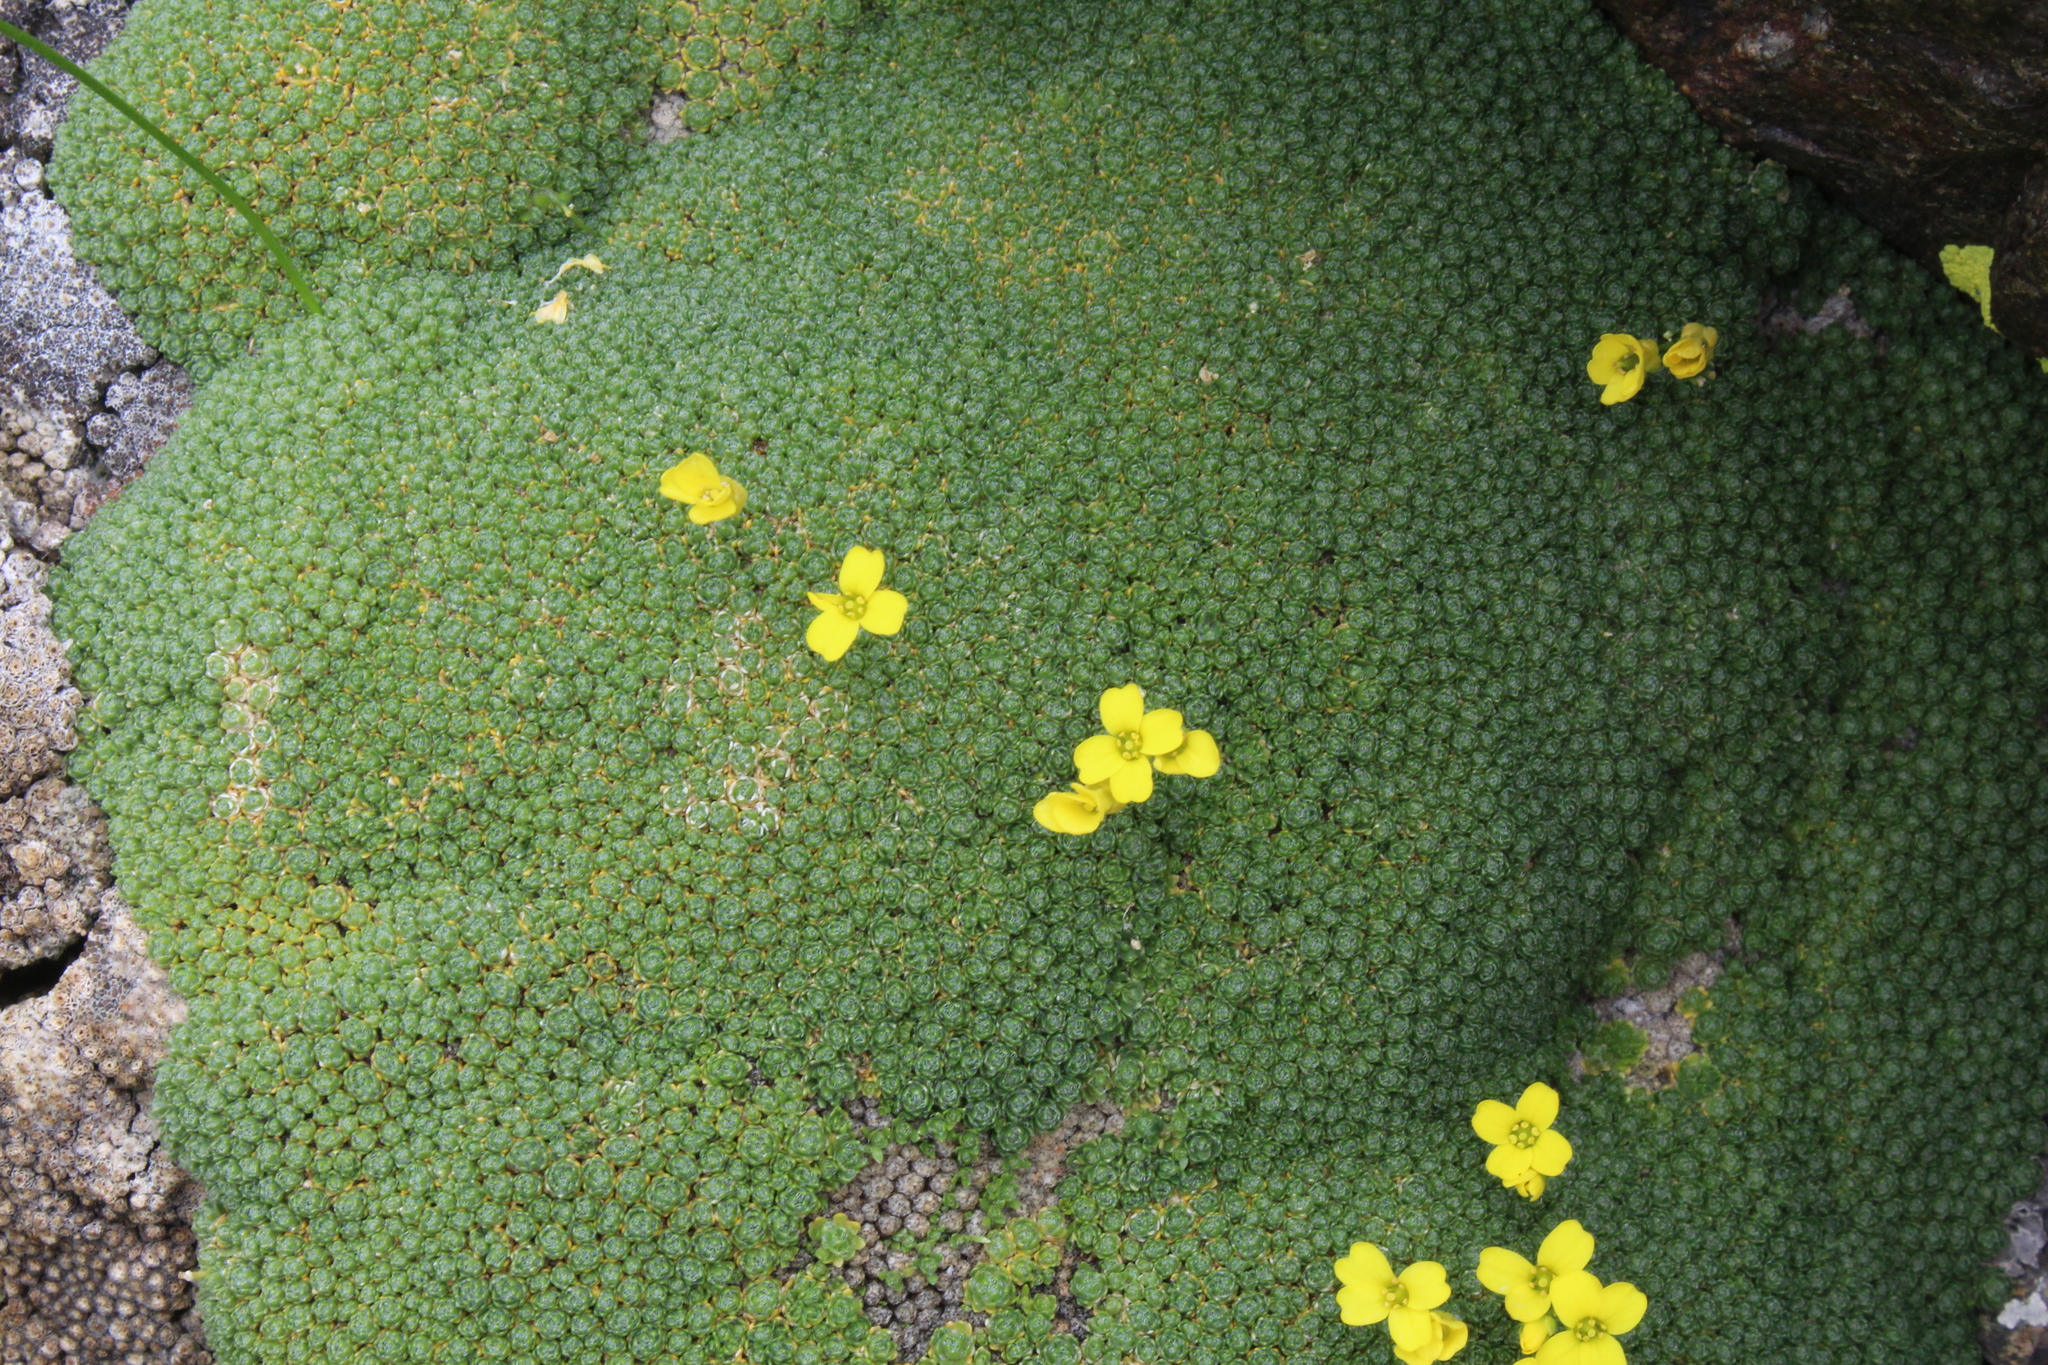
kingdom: Plantae
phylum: Tracheophyta
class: Magnoliopsida
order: Brassicales
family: Brassicaceae
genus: Draba
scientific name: Draba rigida
